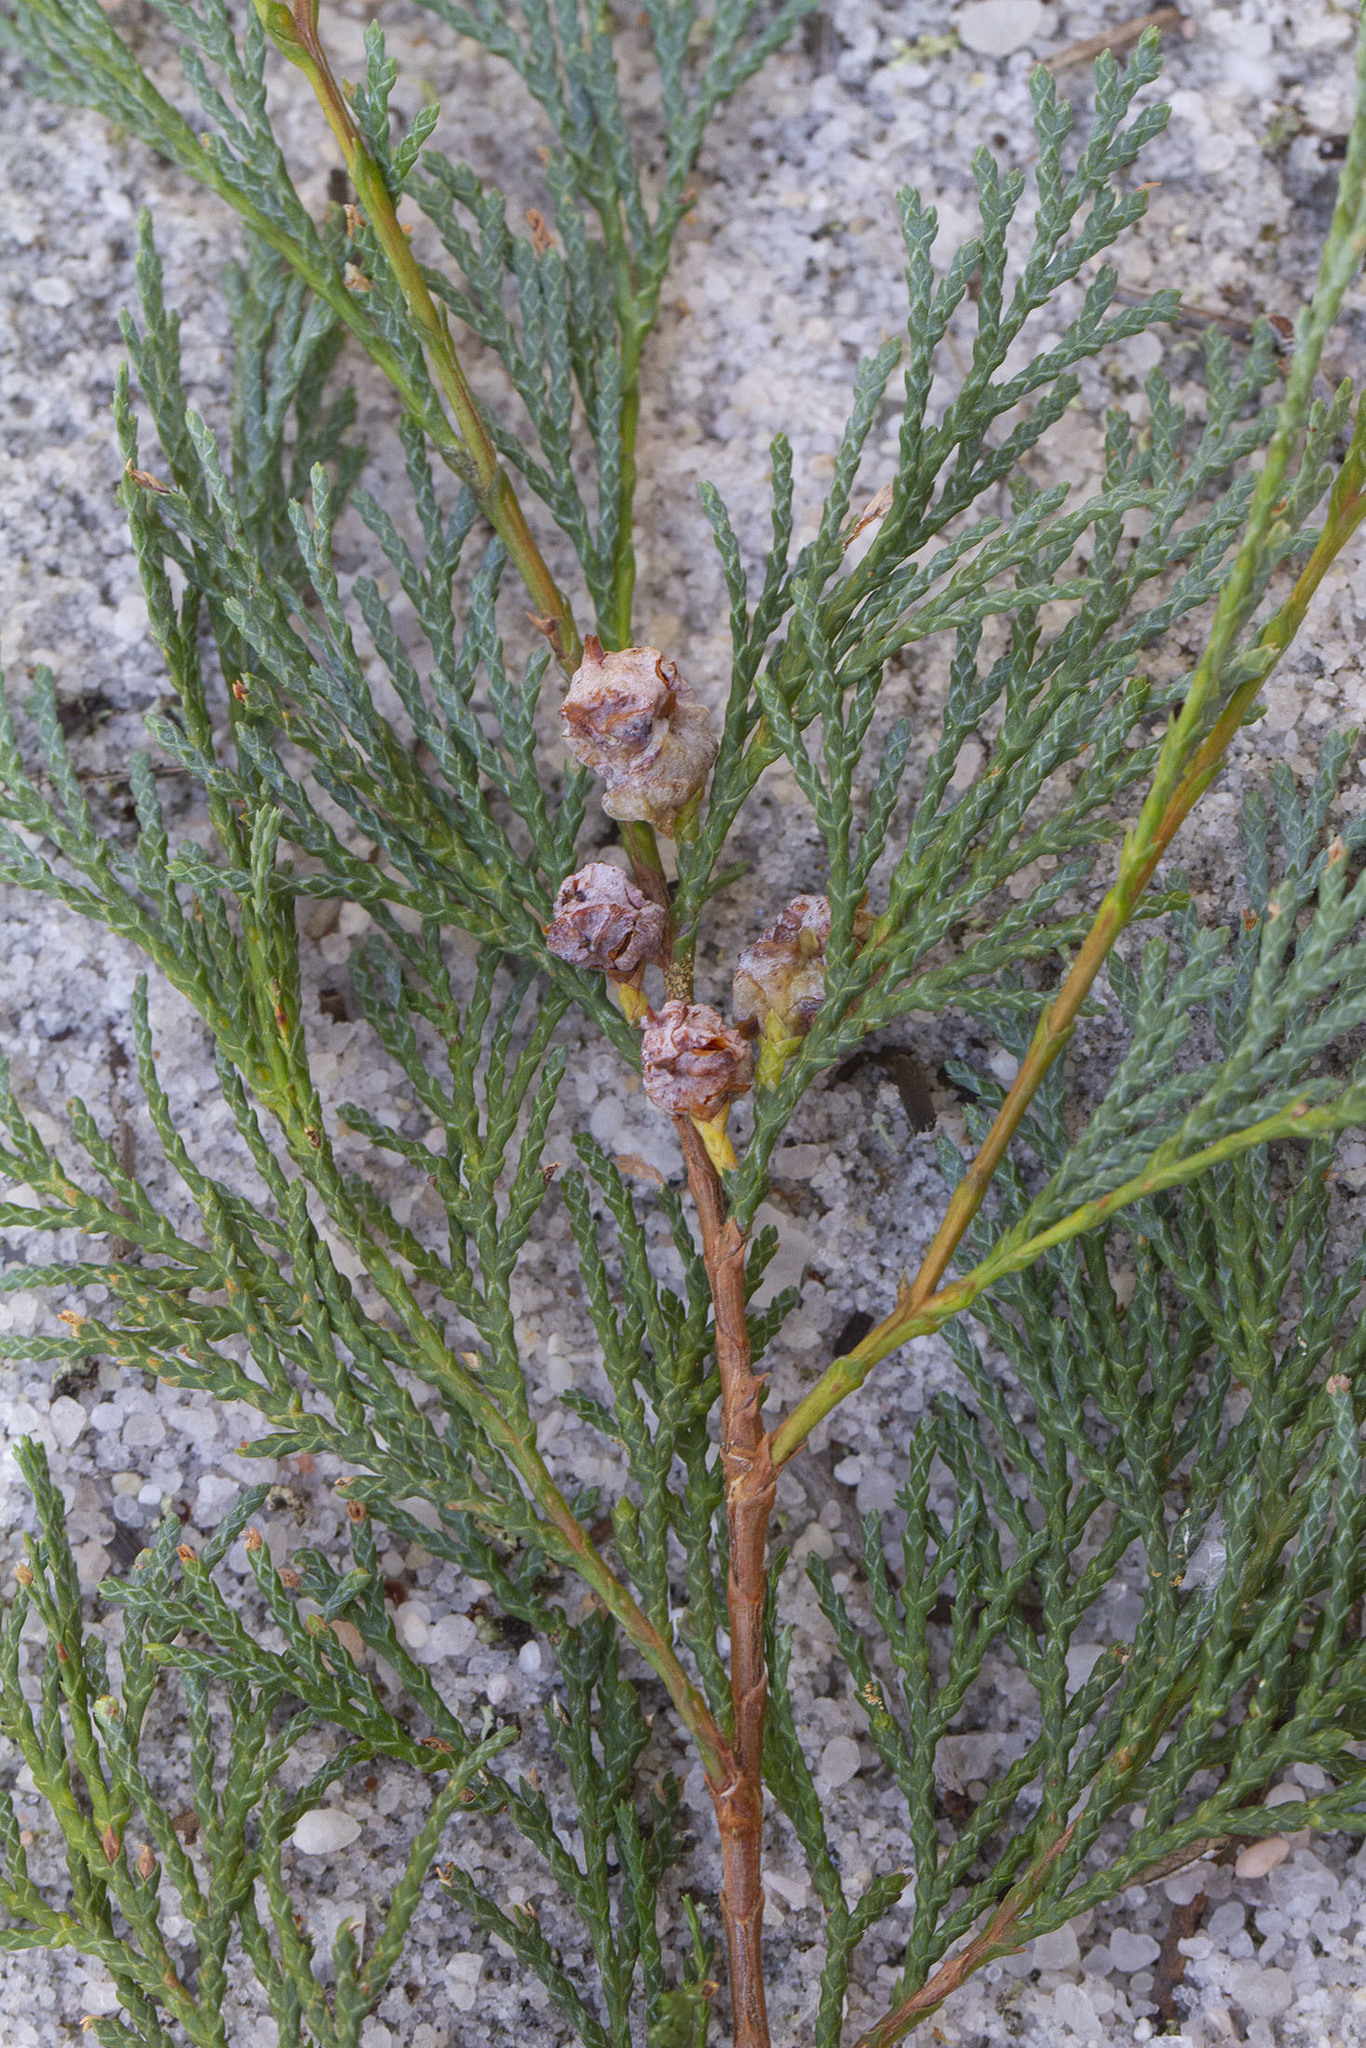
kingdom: Plantae
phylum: Tracheophyta
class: Pinopsida
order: Pinales
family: Cupressaceae
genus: Chamaecyparis
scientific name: Chamaecyparis thyoides
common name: Atlantic white cedar
